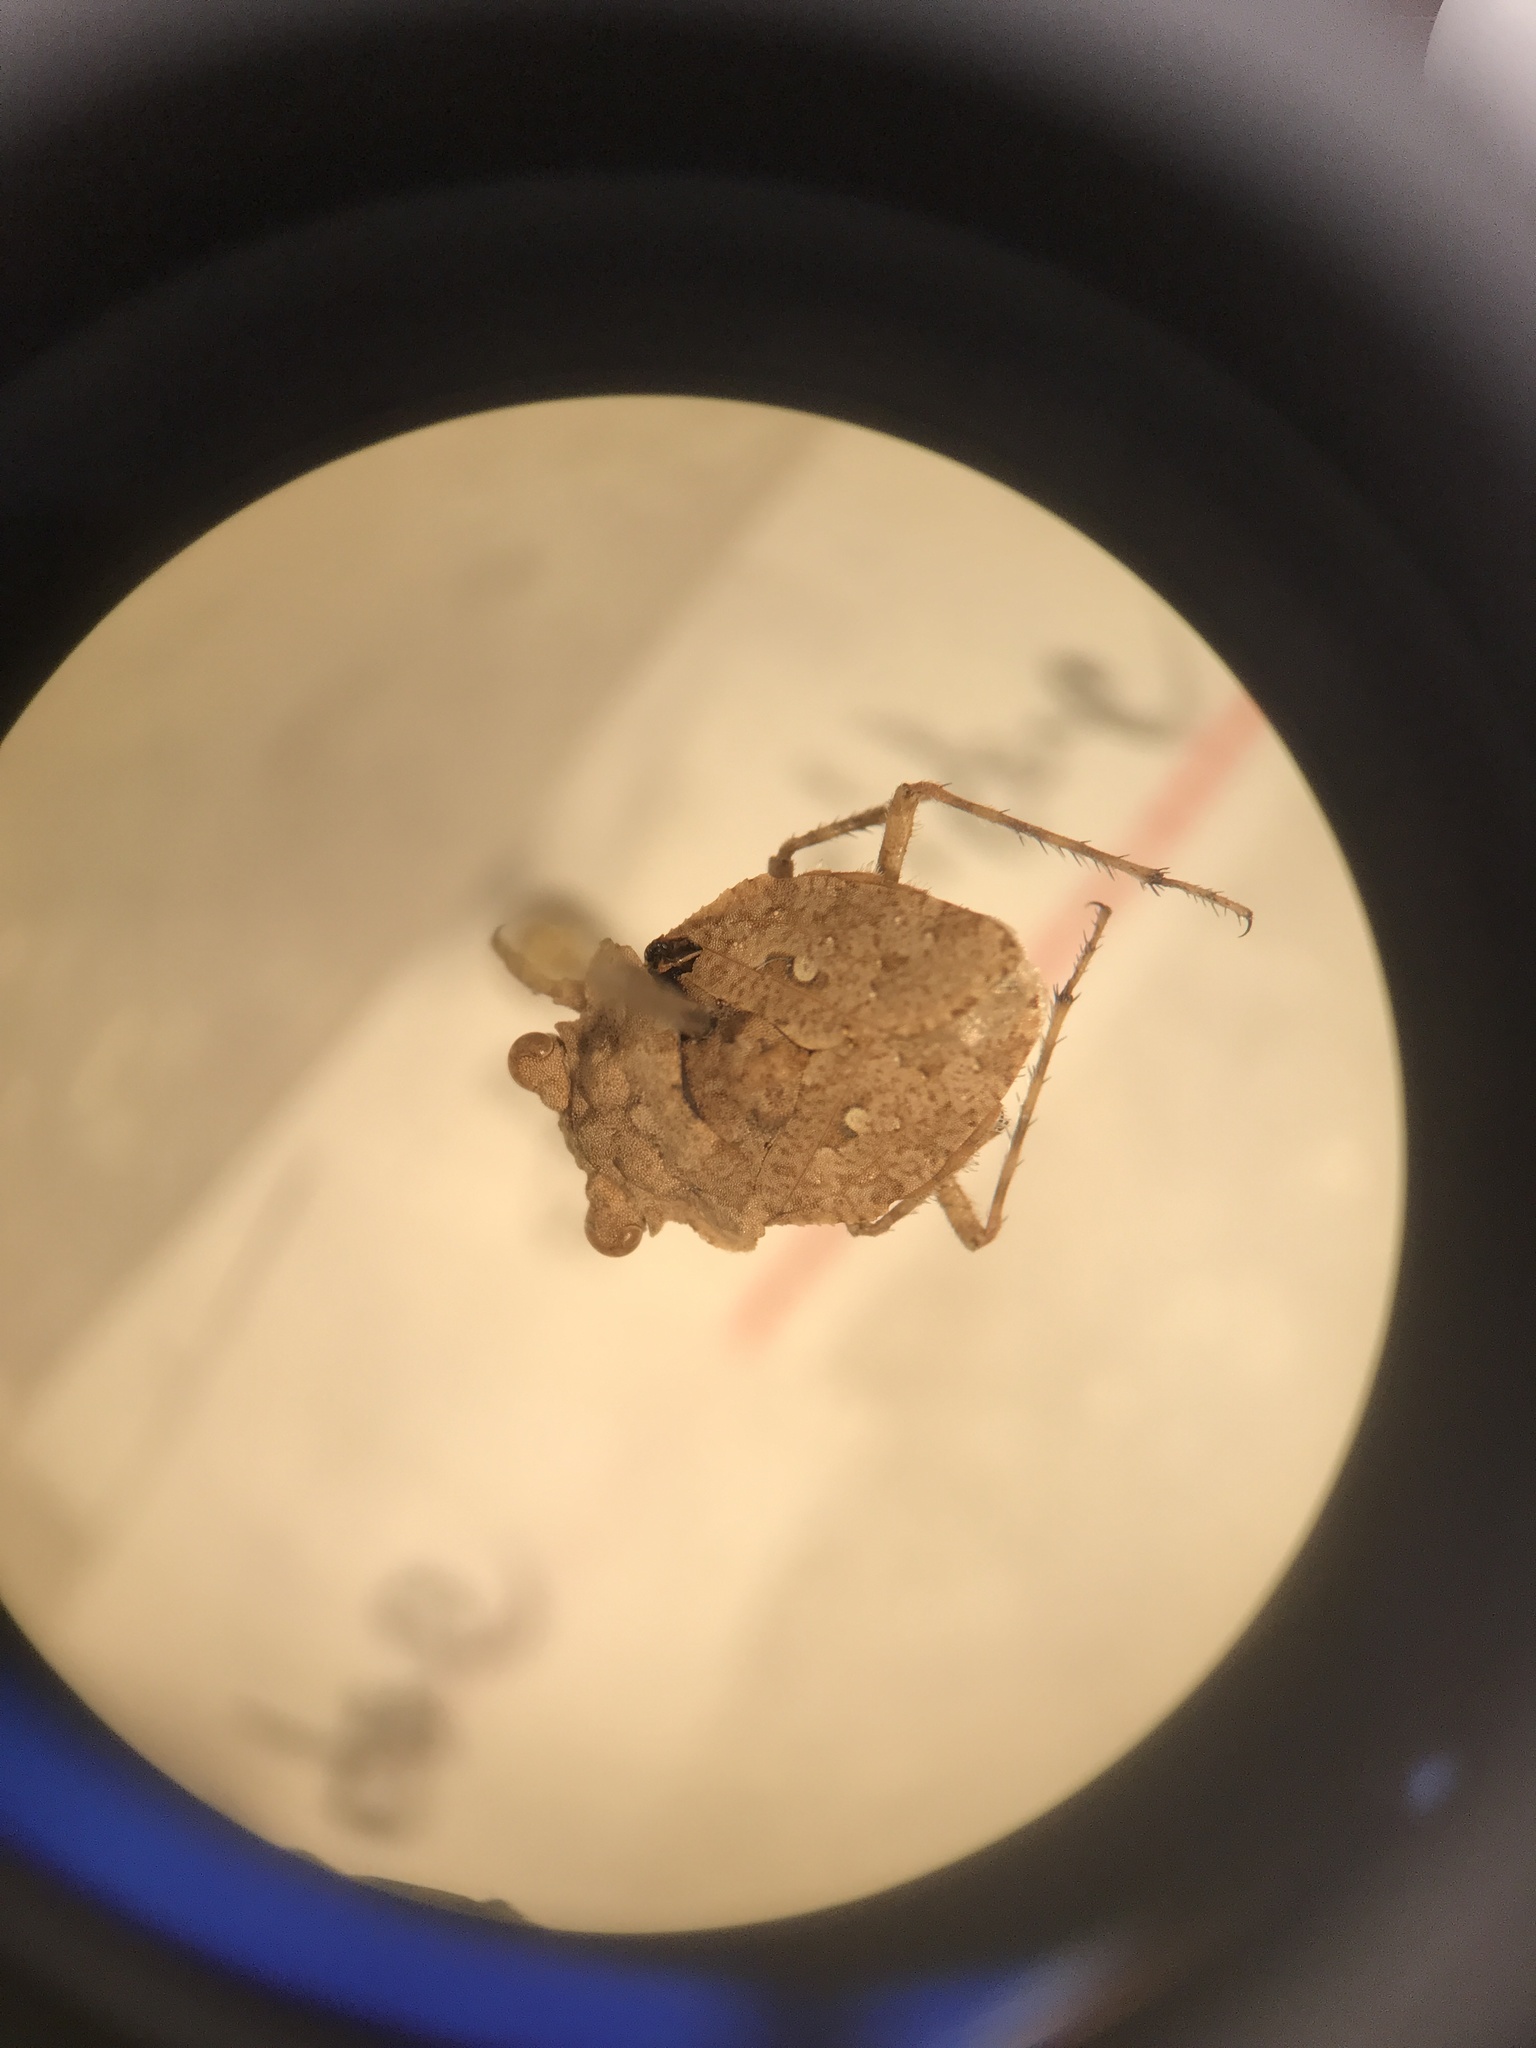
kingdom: Animalia
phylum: Arthropoda
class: Insecta
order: Hemiptera
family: Gelastocoridae
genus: Gelastocoris
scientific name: Gelastocoris oculatus
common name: Toad bug
